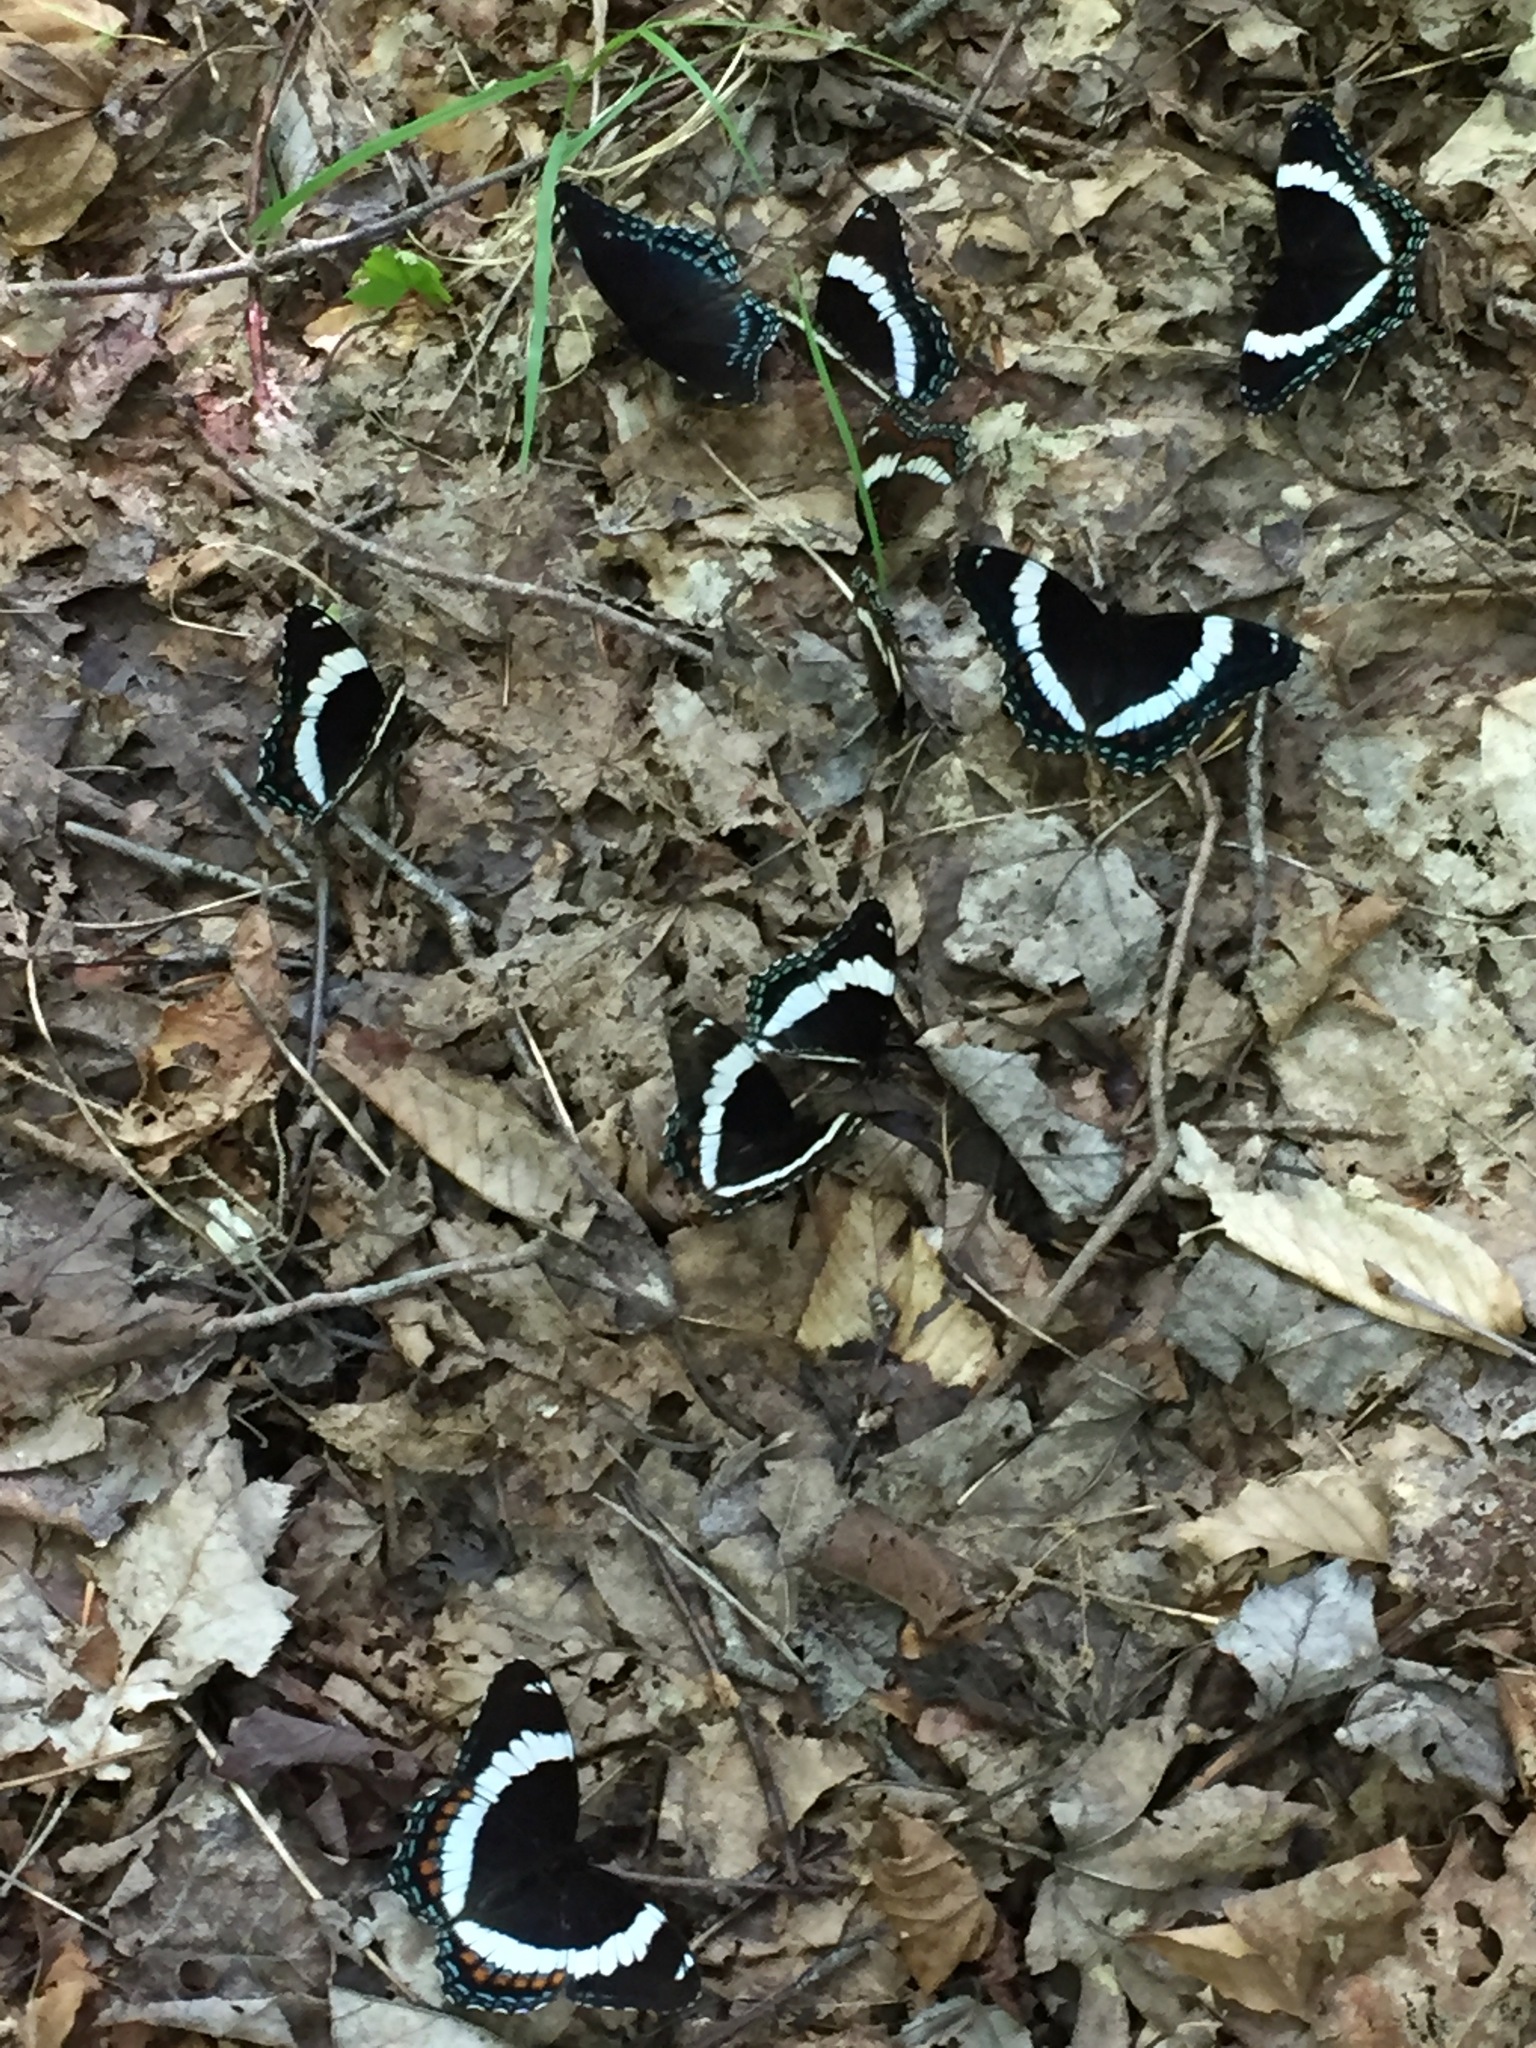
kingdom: Animalia
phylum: Arthropoda
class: Insecta
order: Lepidoptera
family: Nymphalidae
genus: Limenitis
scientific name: Limenitis arthemis
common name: Red-spotted admiral
